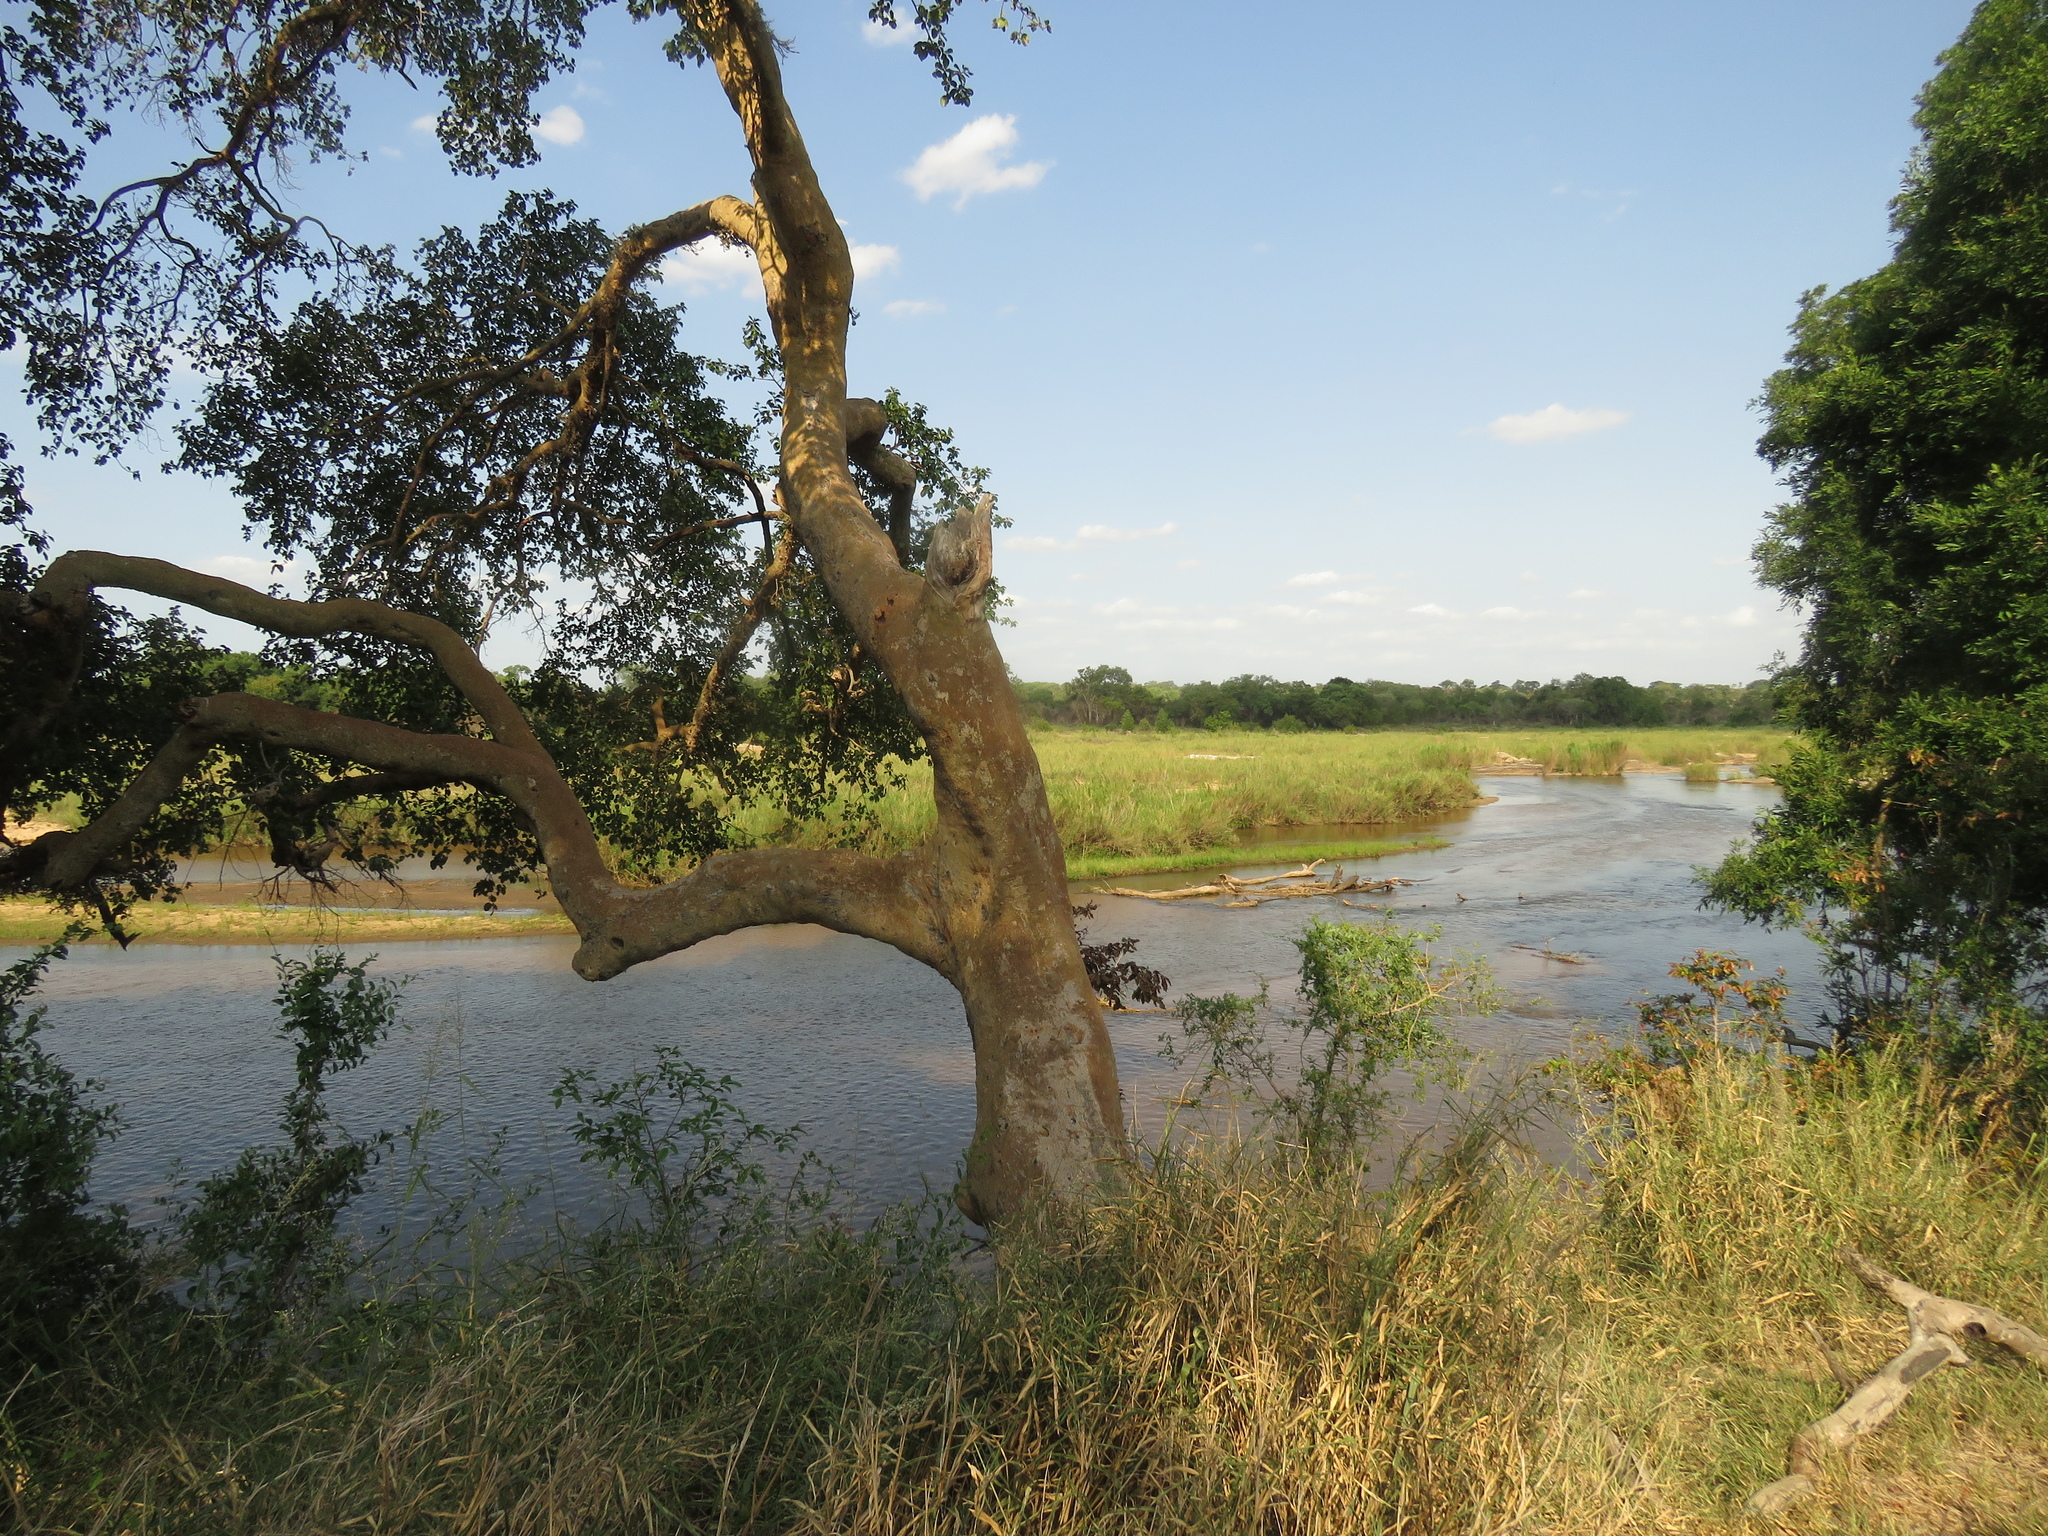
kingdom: Plantae
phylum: Tracheophyta
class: Magnoliopsida
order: Rosales
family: Moraceae
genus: Ficus
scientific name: Ficus sycomorus
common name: Sycomore
